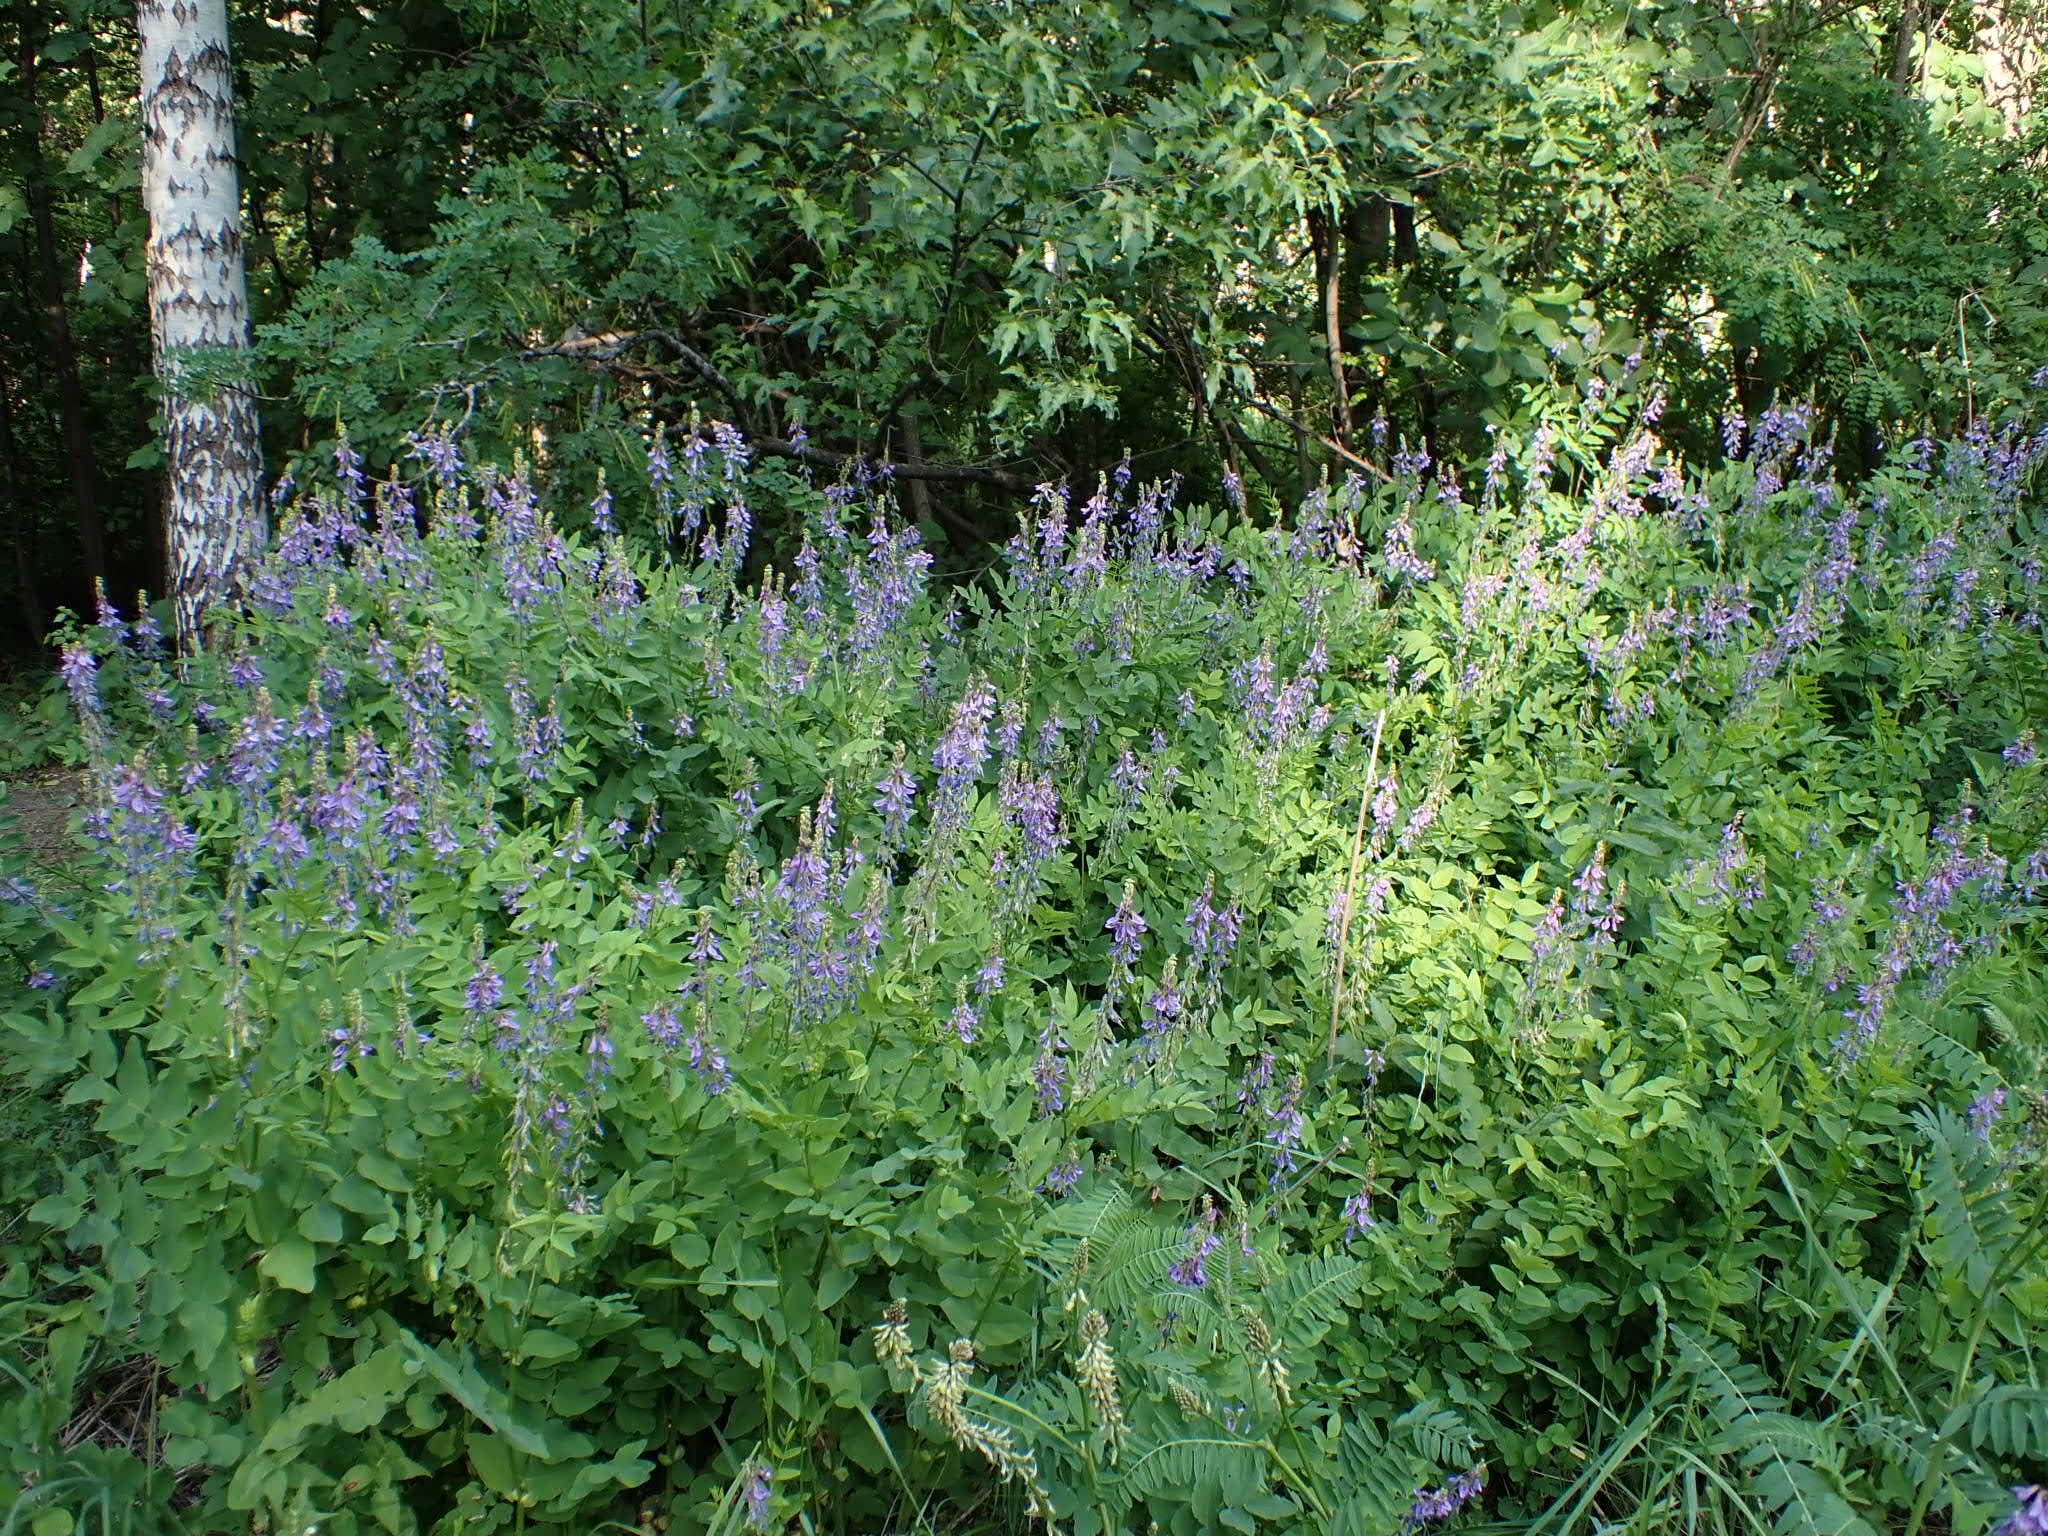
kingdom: Plantae
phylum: Tracheophyta
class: Magnoliopsida
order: Fabales
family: Fabaceae
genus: Galega
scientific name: Galega orientalis
